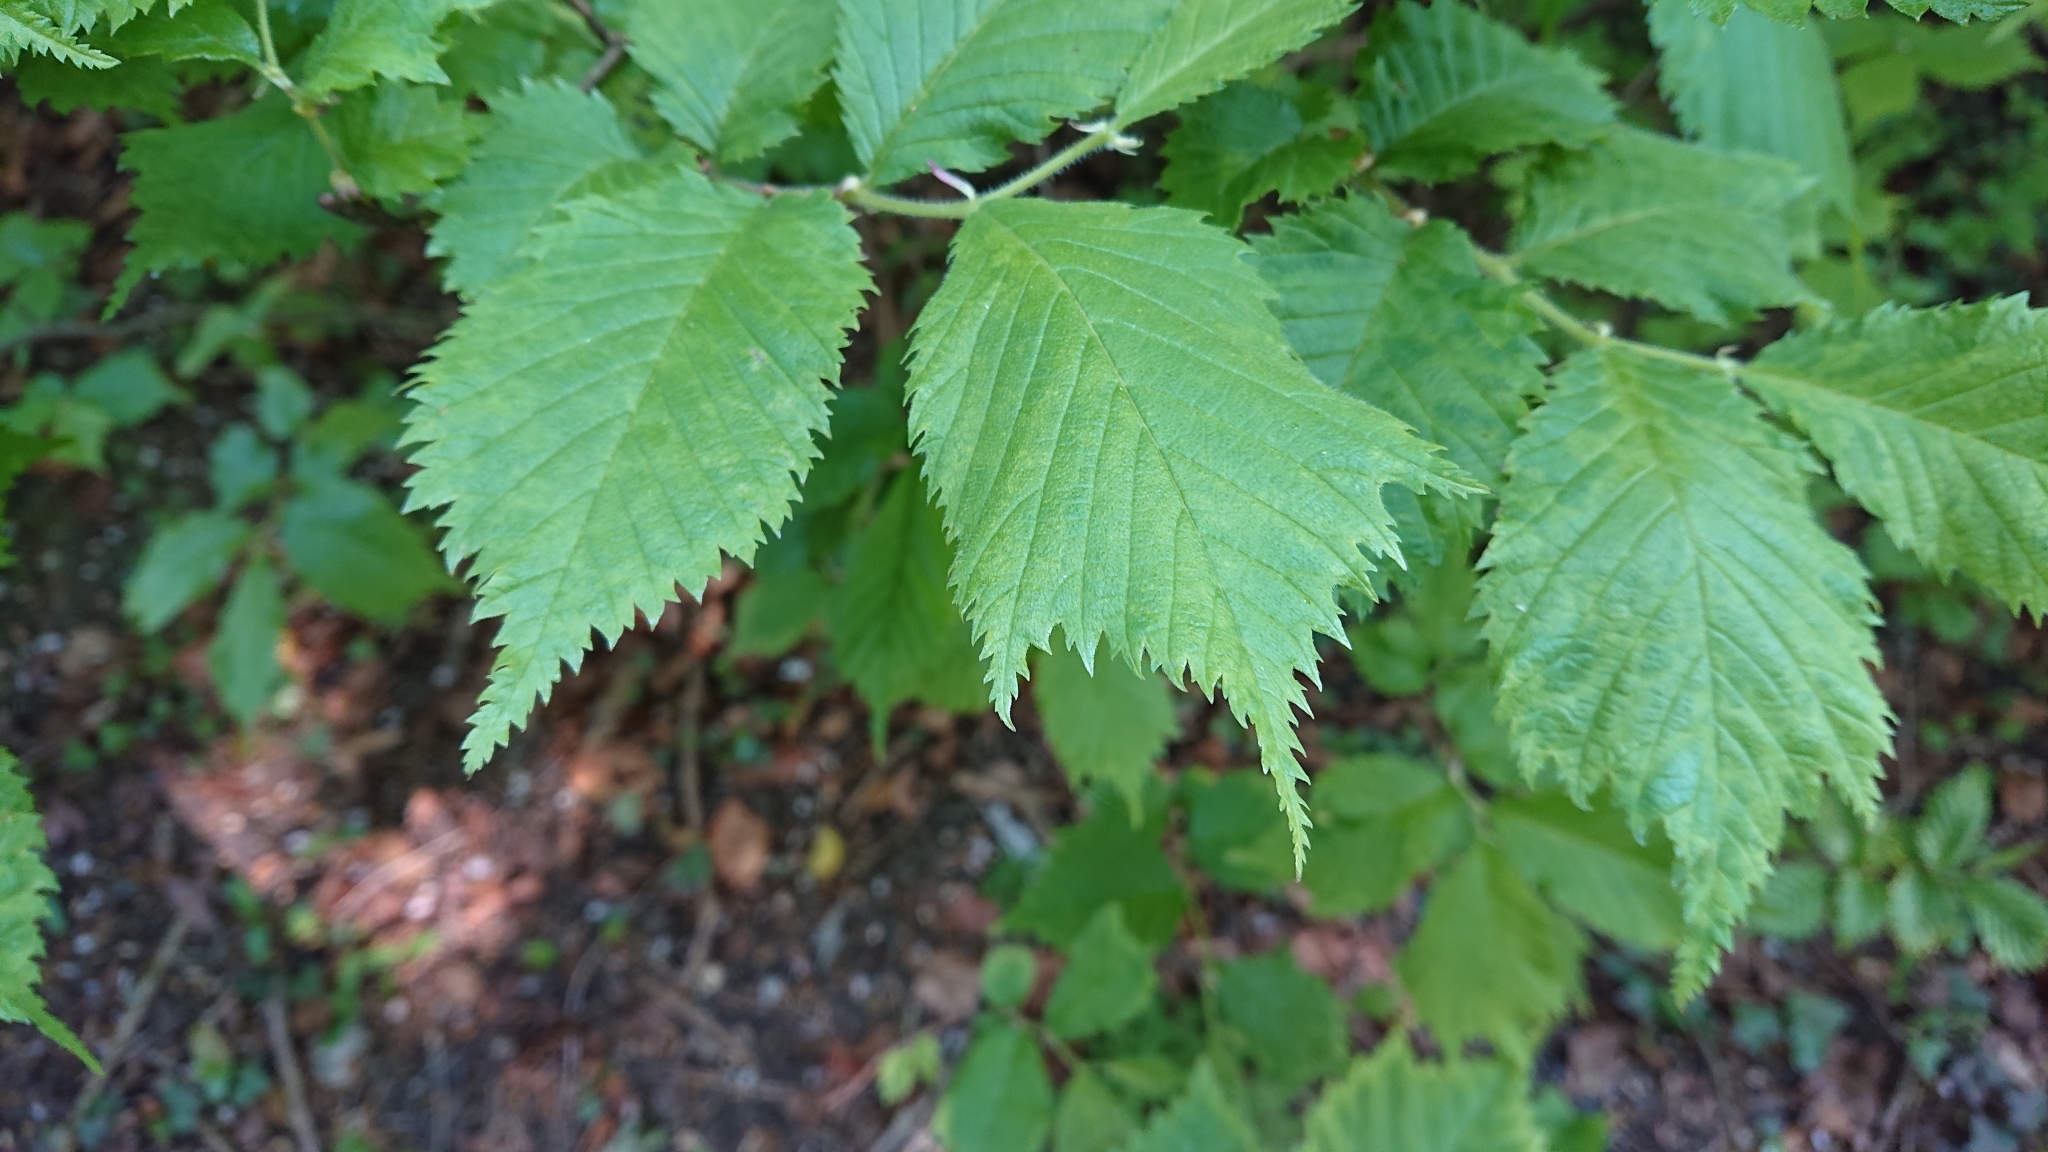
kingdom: Plantae
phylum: Tracheophyta
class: Magnoliopsida
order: Rosales
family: Ulmaceae
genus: Ulmus
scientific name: Ulmus glabra
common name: Wych elm
